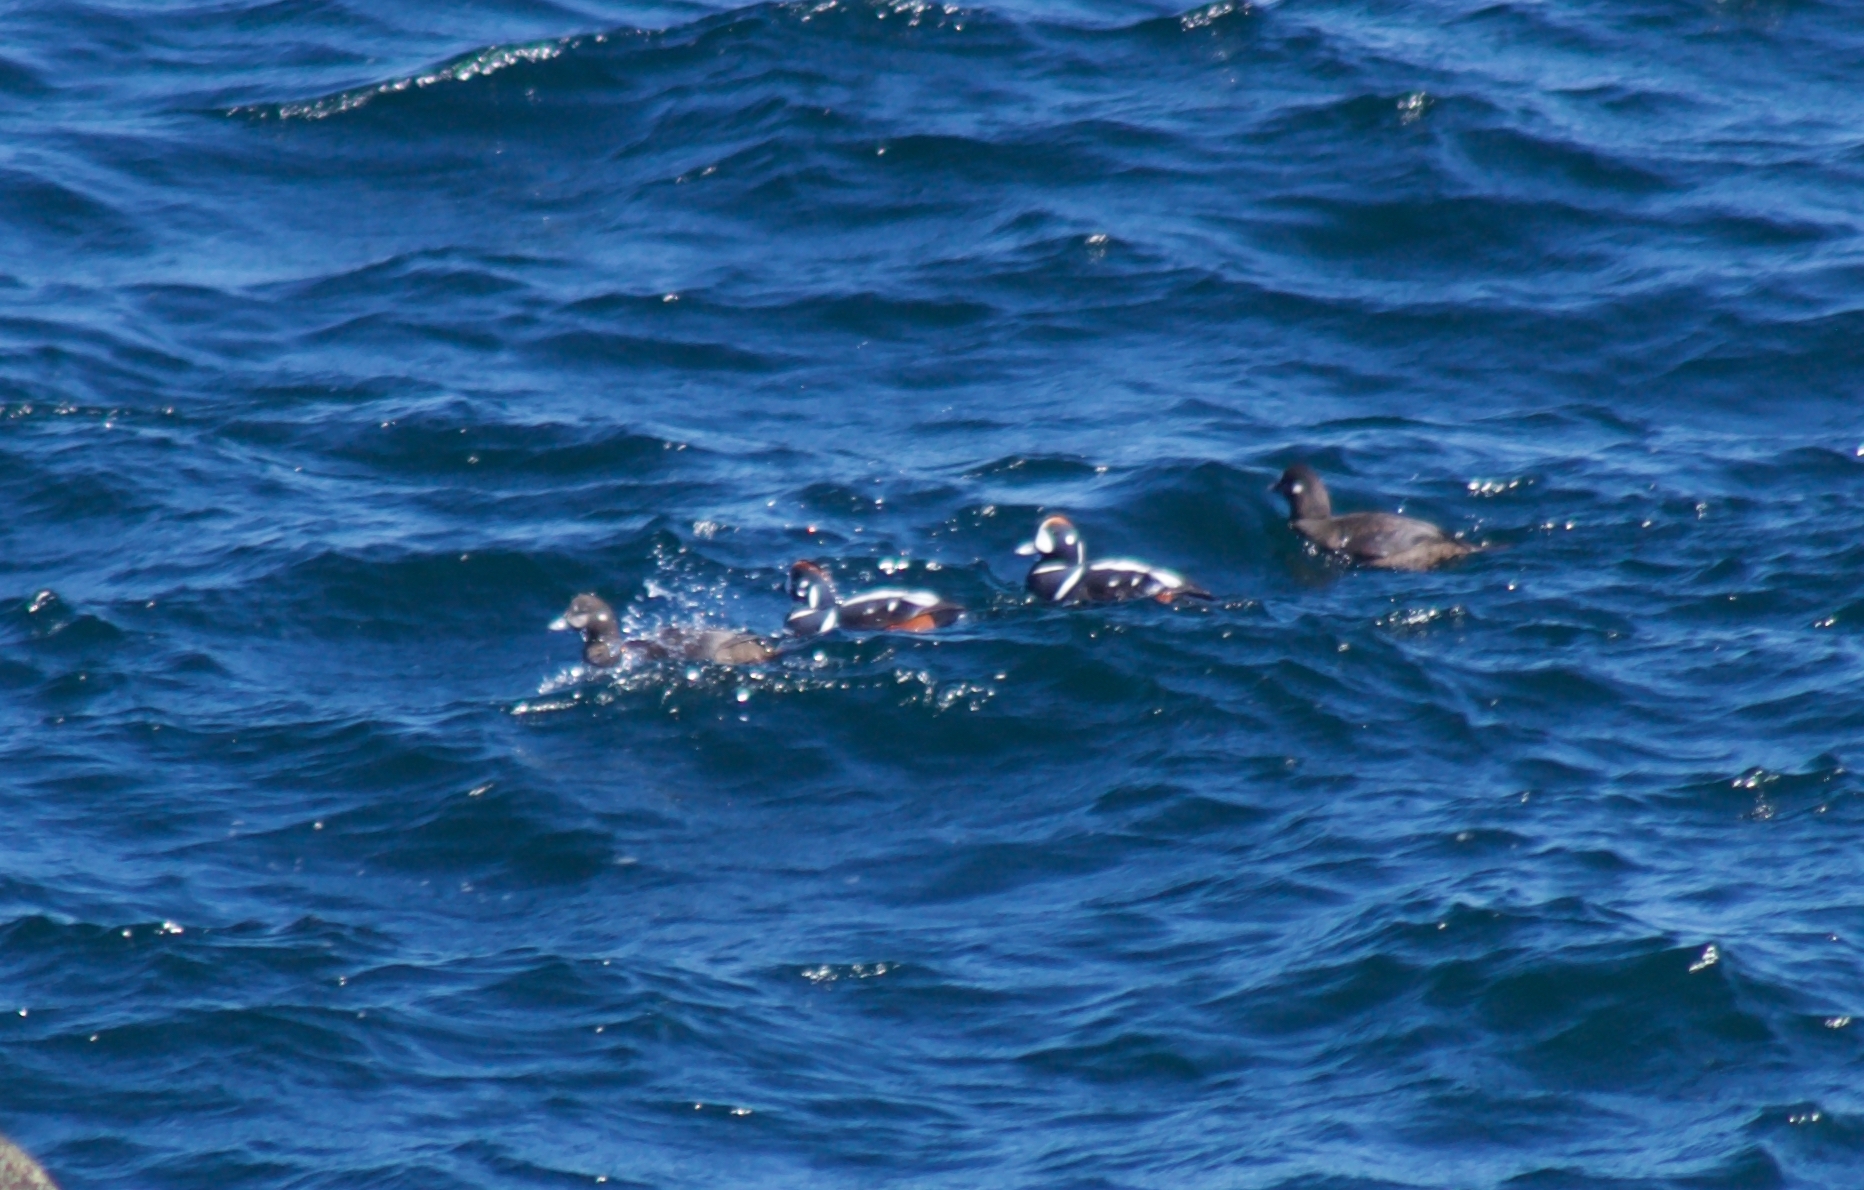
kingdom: Animalia
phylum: Chordata
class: Aves
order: Anseriformes
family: Anatidae
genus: Histrionicus
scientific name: Histrionicus histrionicus
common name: Harlequin duck
